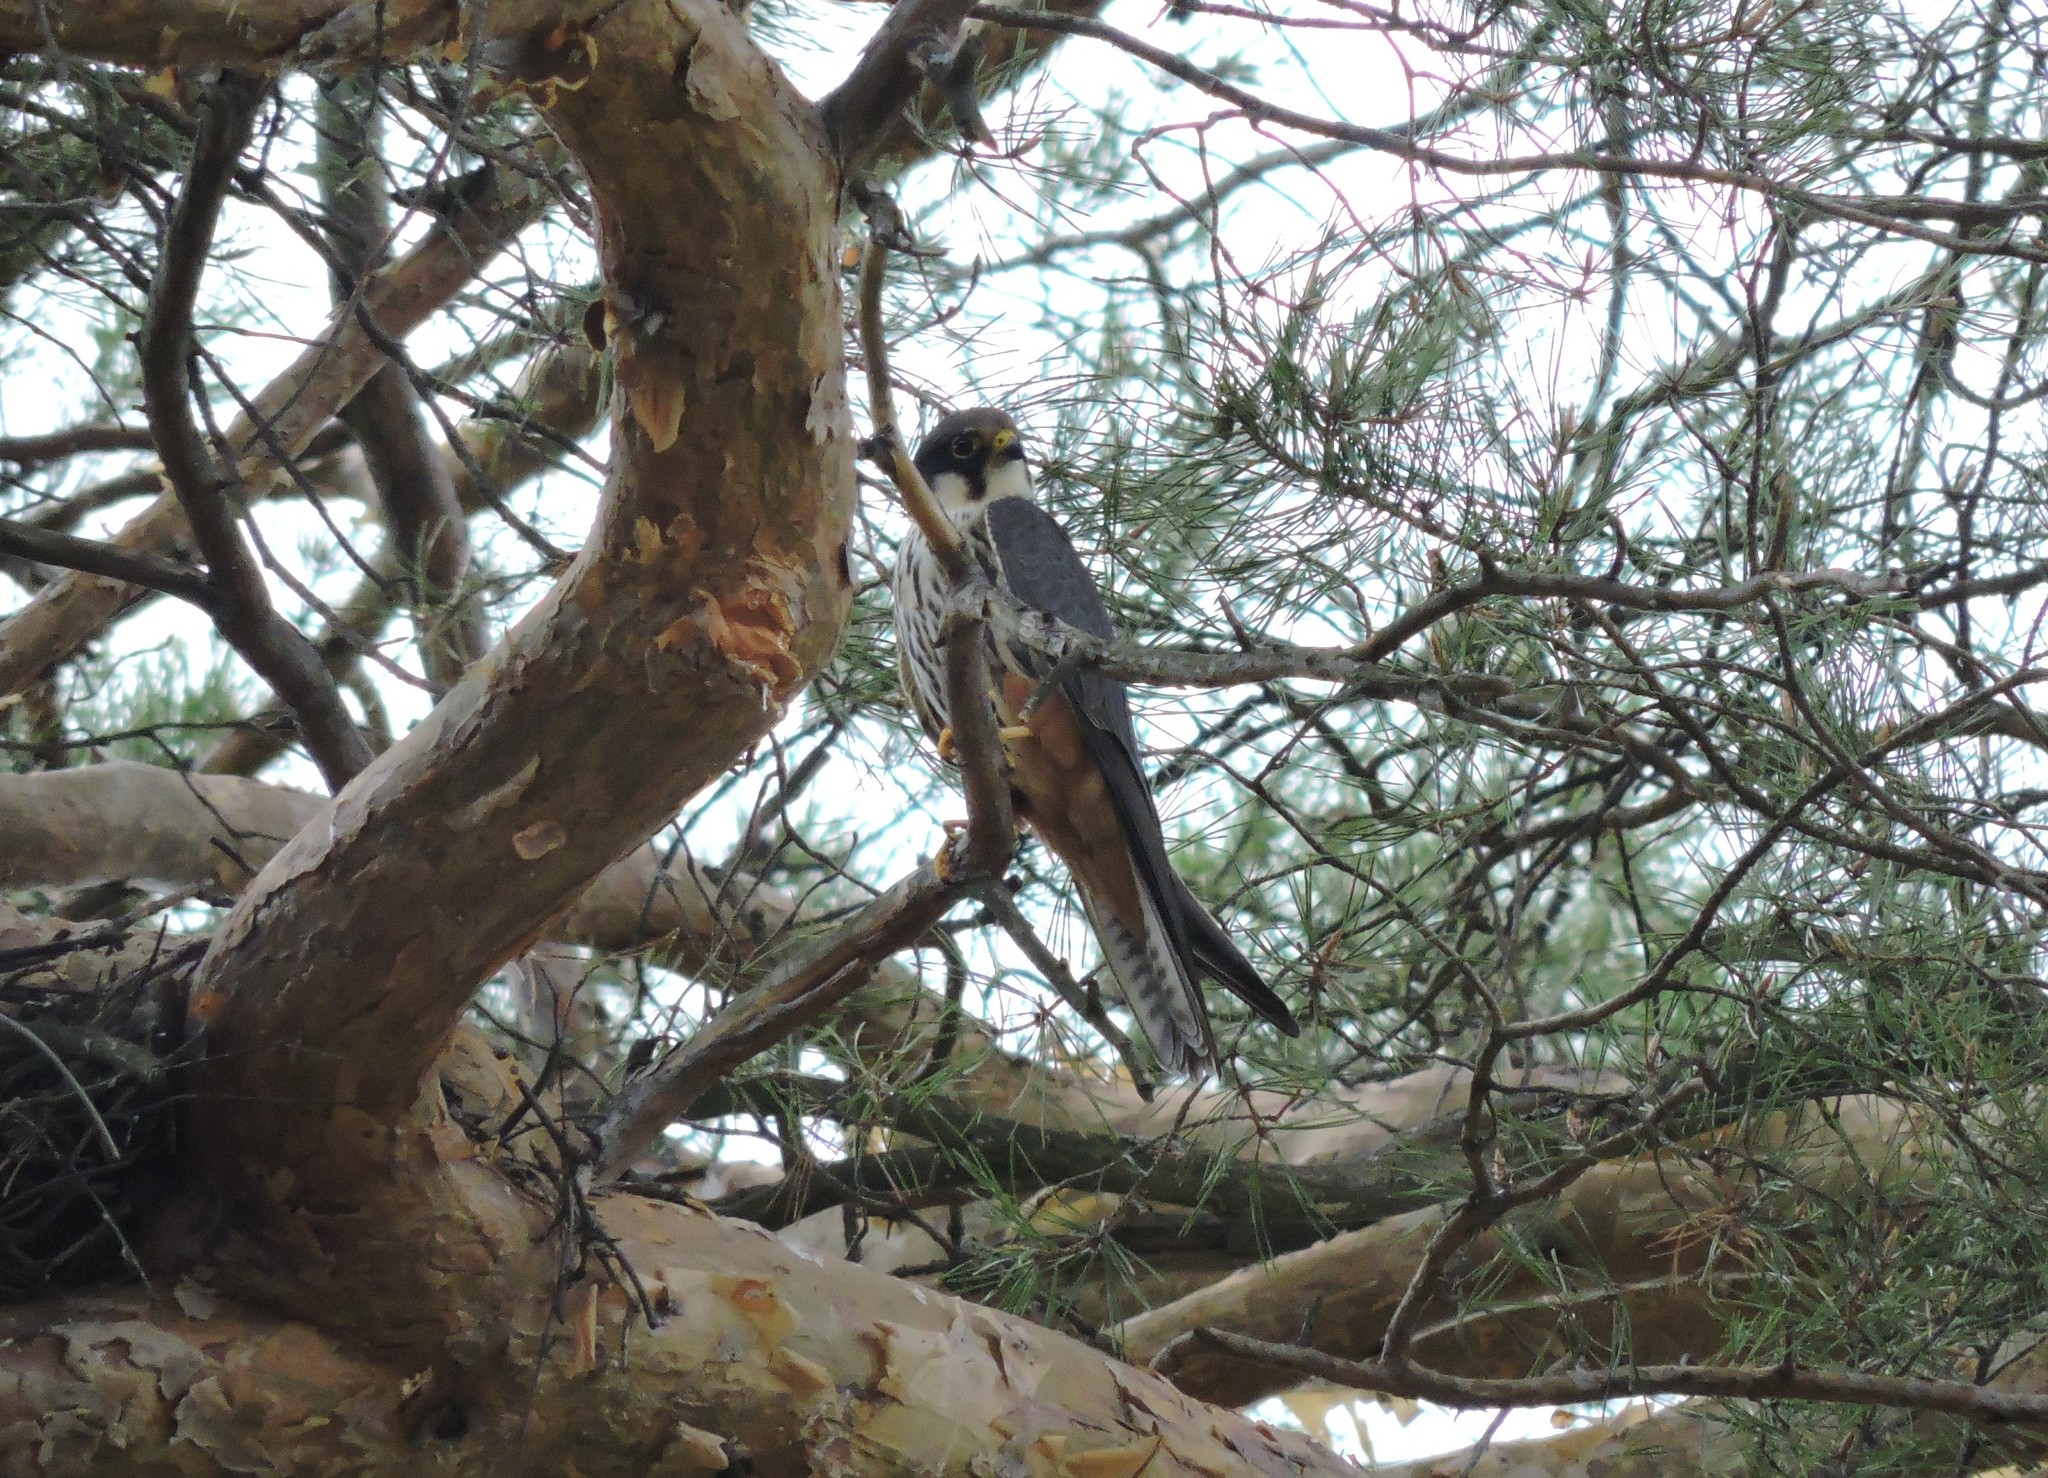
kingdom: Animalia
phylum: Chordata
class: Aves
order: Falconiformes
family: Falconidae
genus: Falco
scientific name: Falco subbuteo
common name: Eurasian hobby
